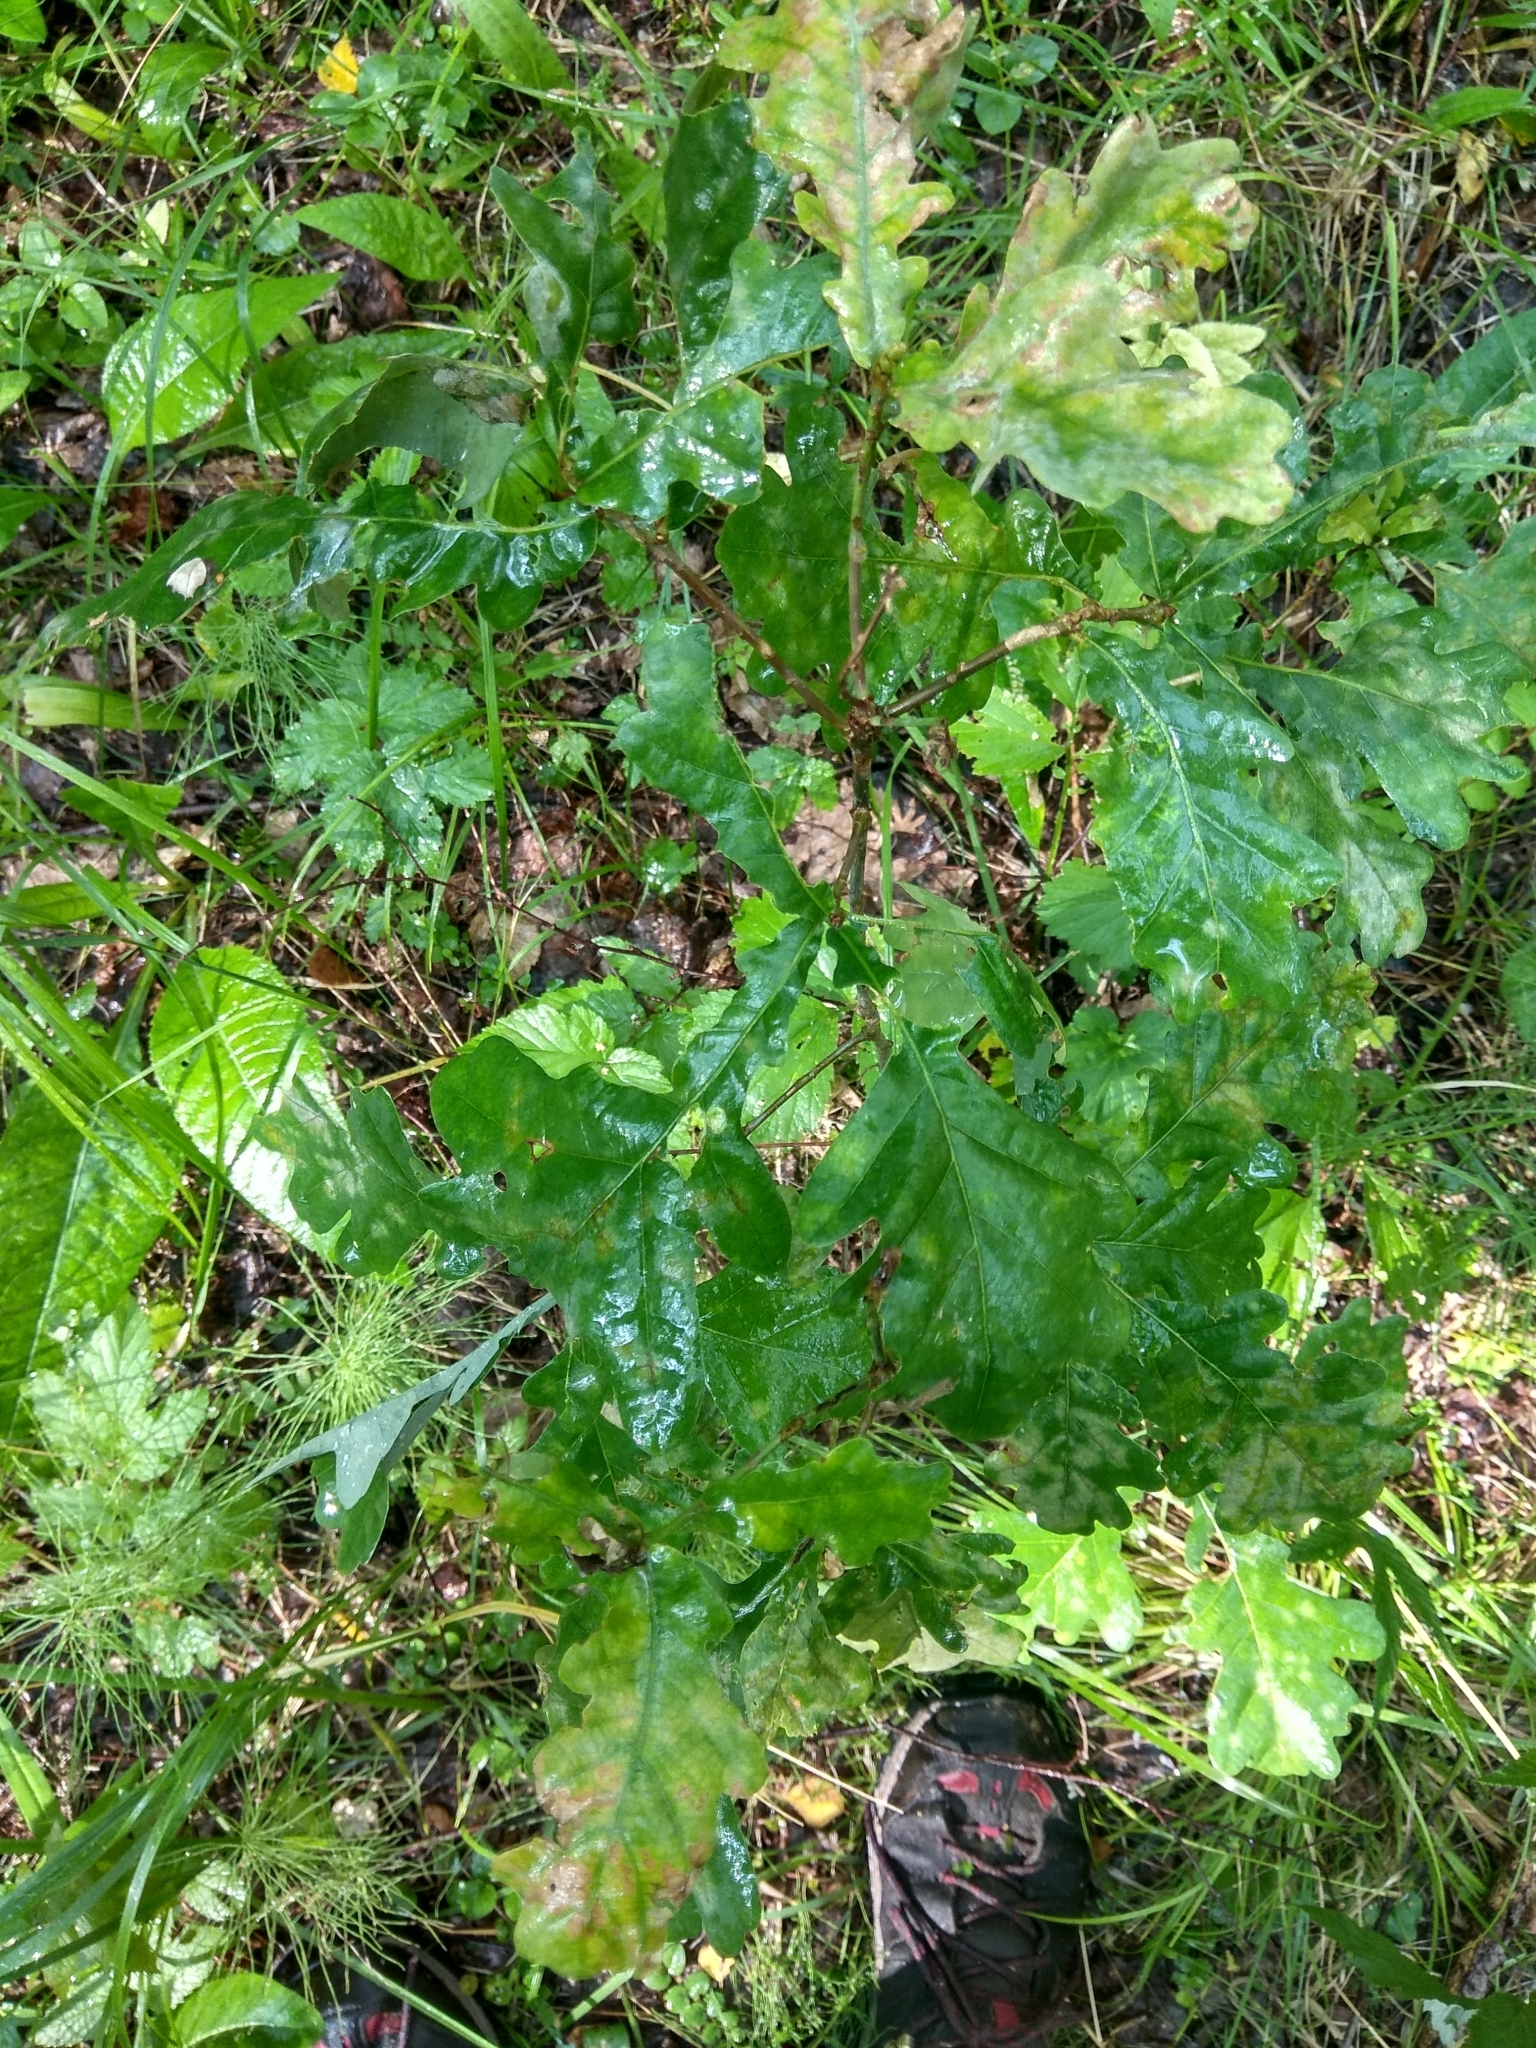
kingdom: Plantae
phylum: Tracheophyta
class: Magnoliopsida
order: Fagales
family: Fagaceae
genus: Quercus
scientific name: Quercus robur
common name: Pedunculate oak
